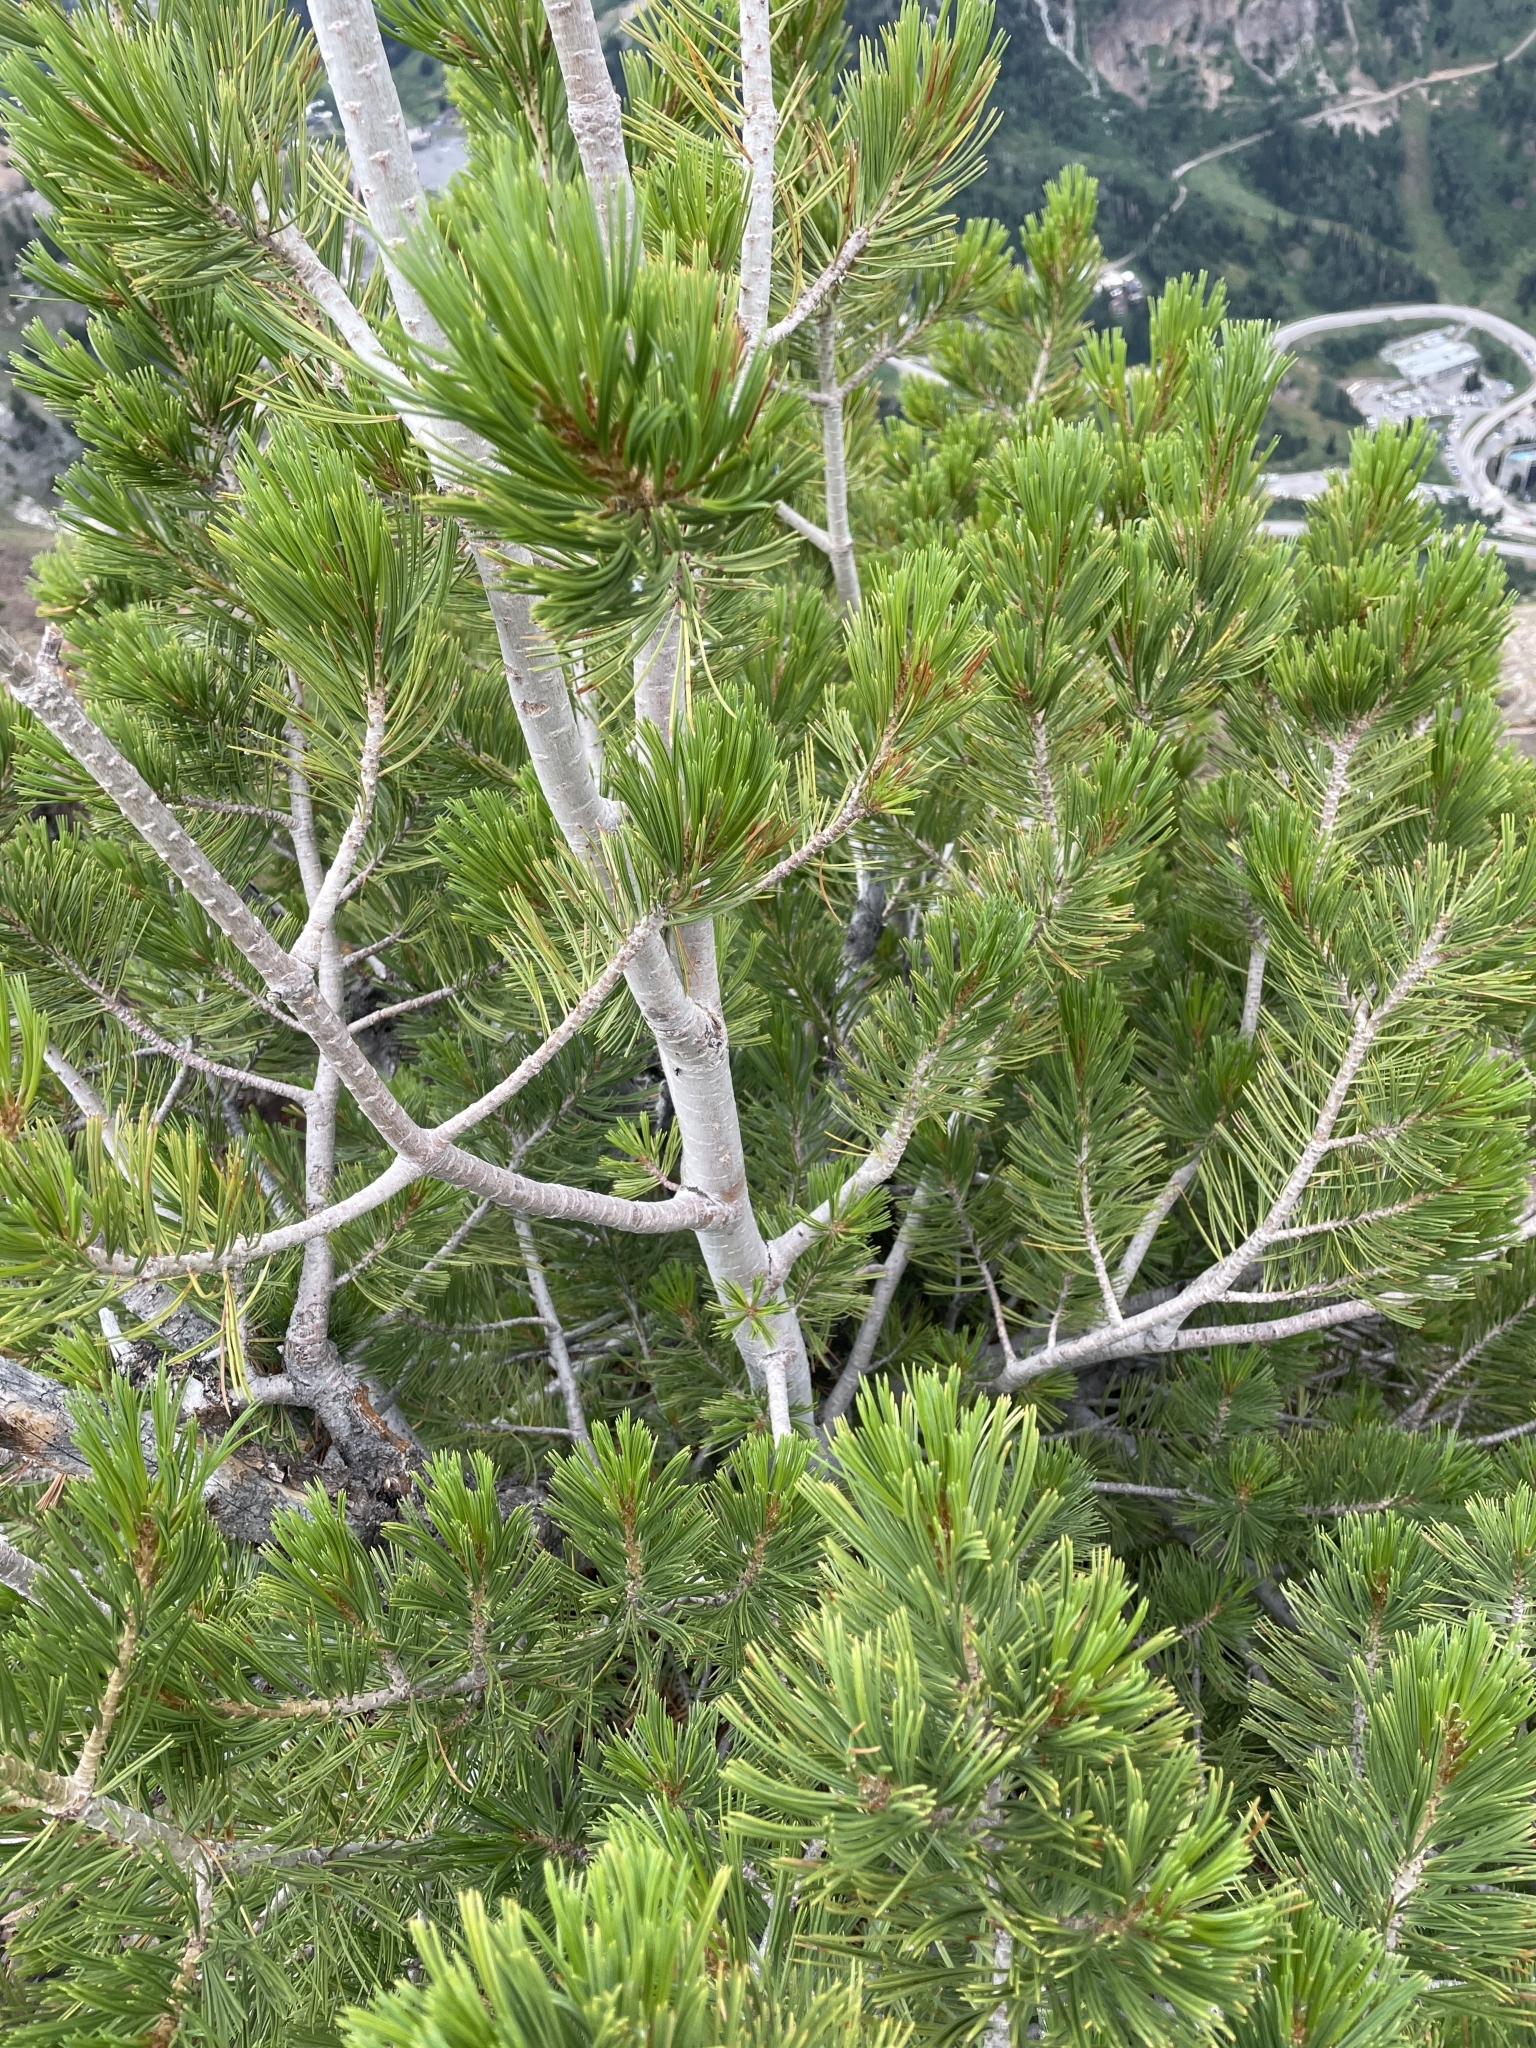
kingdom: Plantae
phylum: Tracheophyta
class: Pinopsida
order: Pinales
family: Pinaceae
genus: Pinus
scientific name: Pinus flexilis
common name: Limber pine
